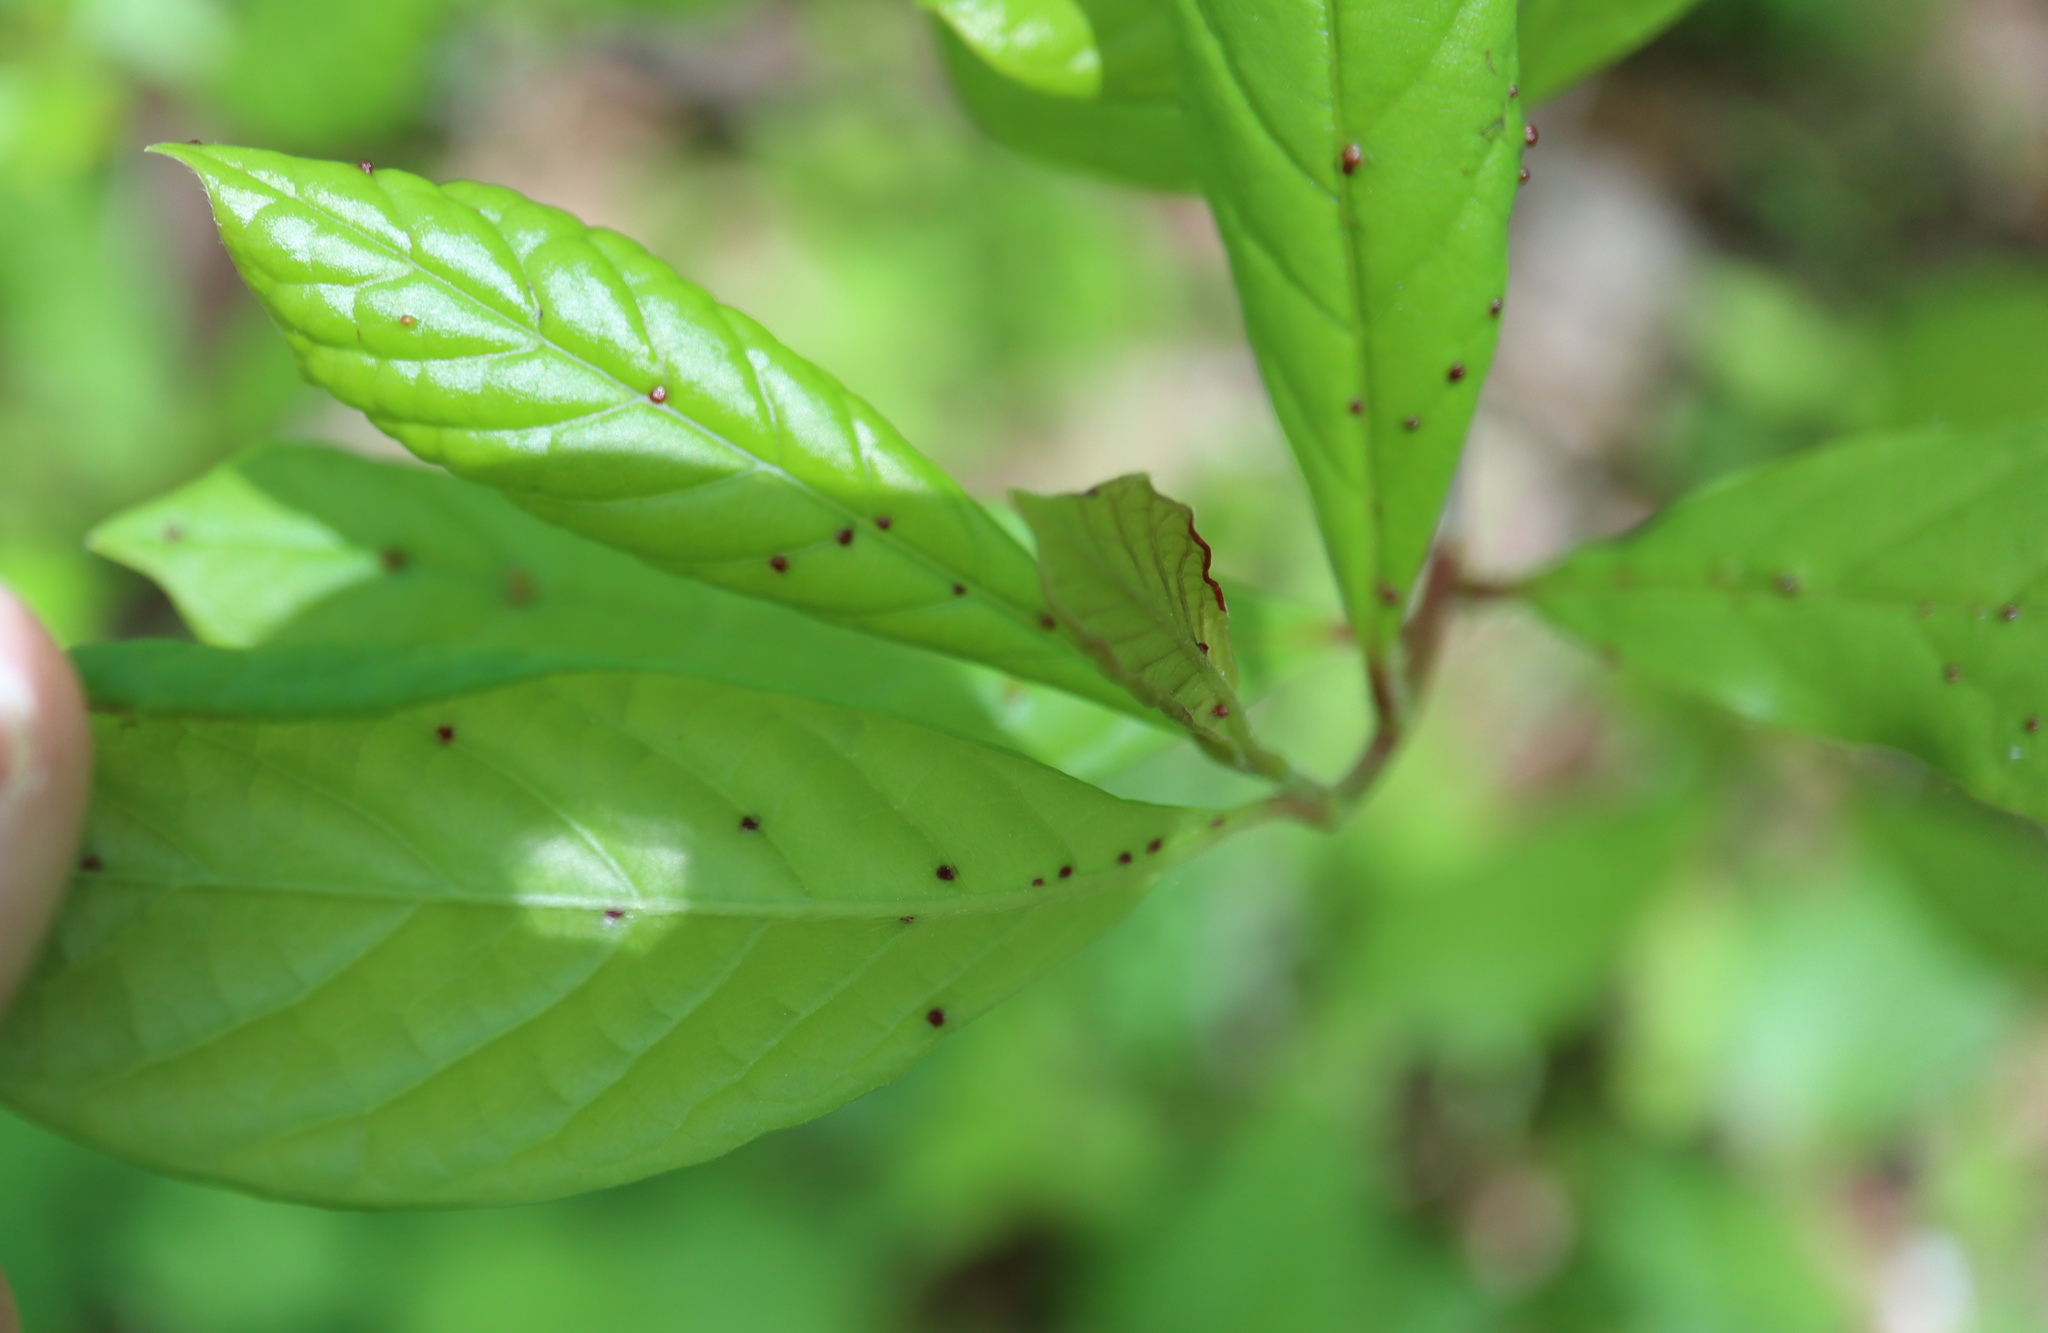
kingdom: Animalia
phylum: Arthropoda
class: Arachnida
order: Trombidiformes
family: Eriophyidae
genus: Aceria
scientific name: Aceria
